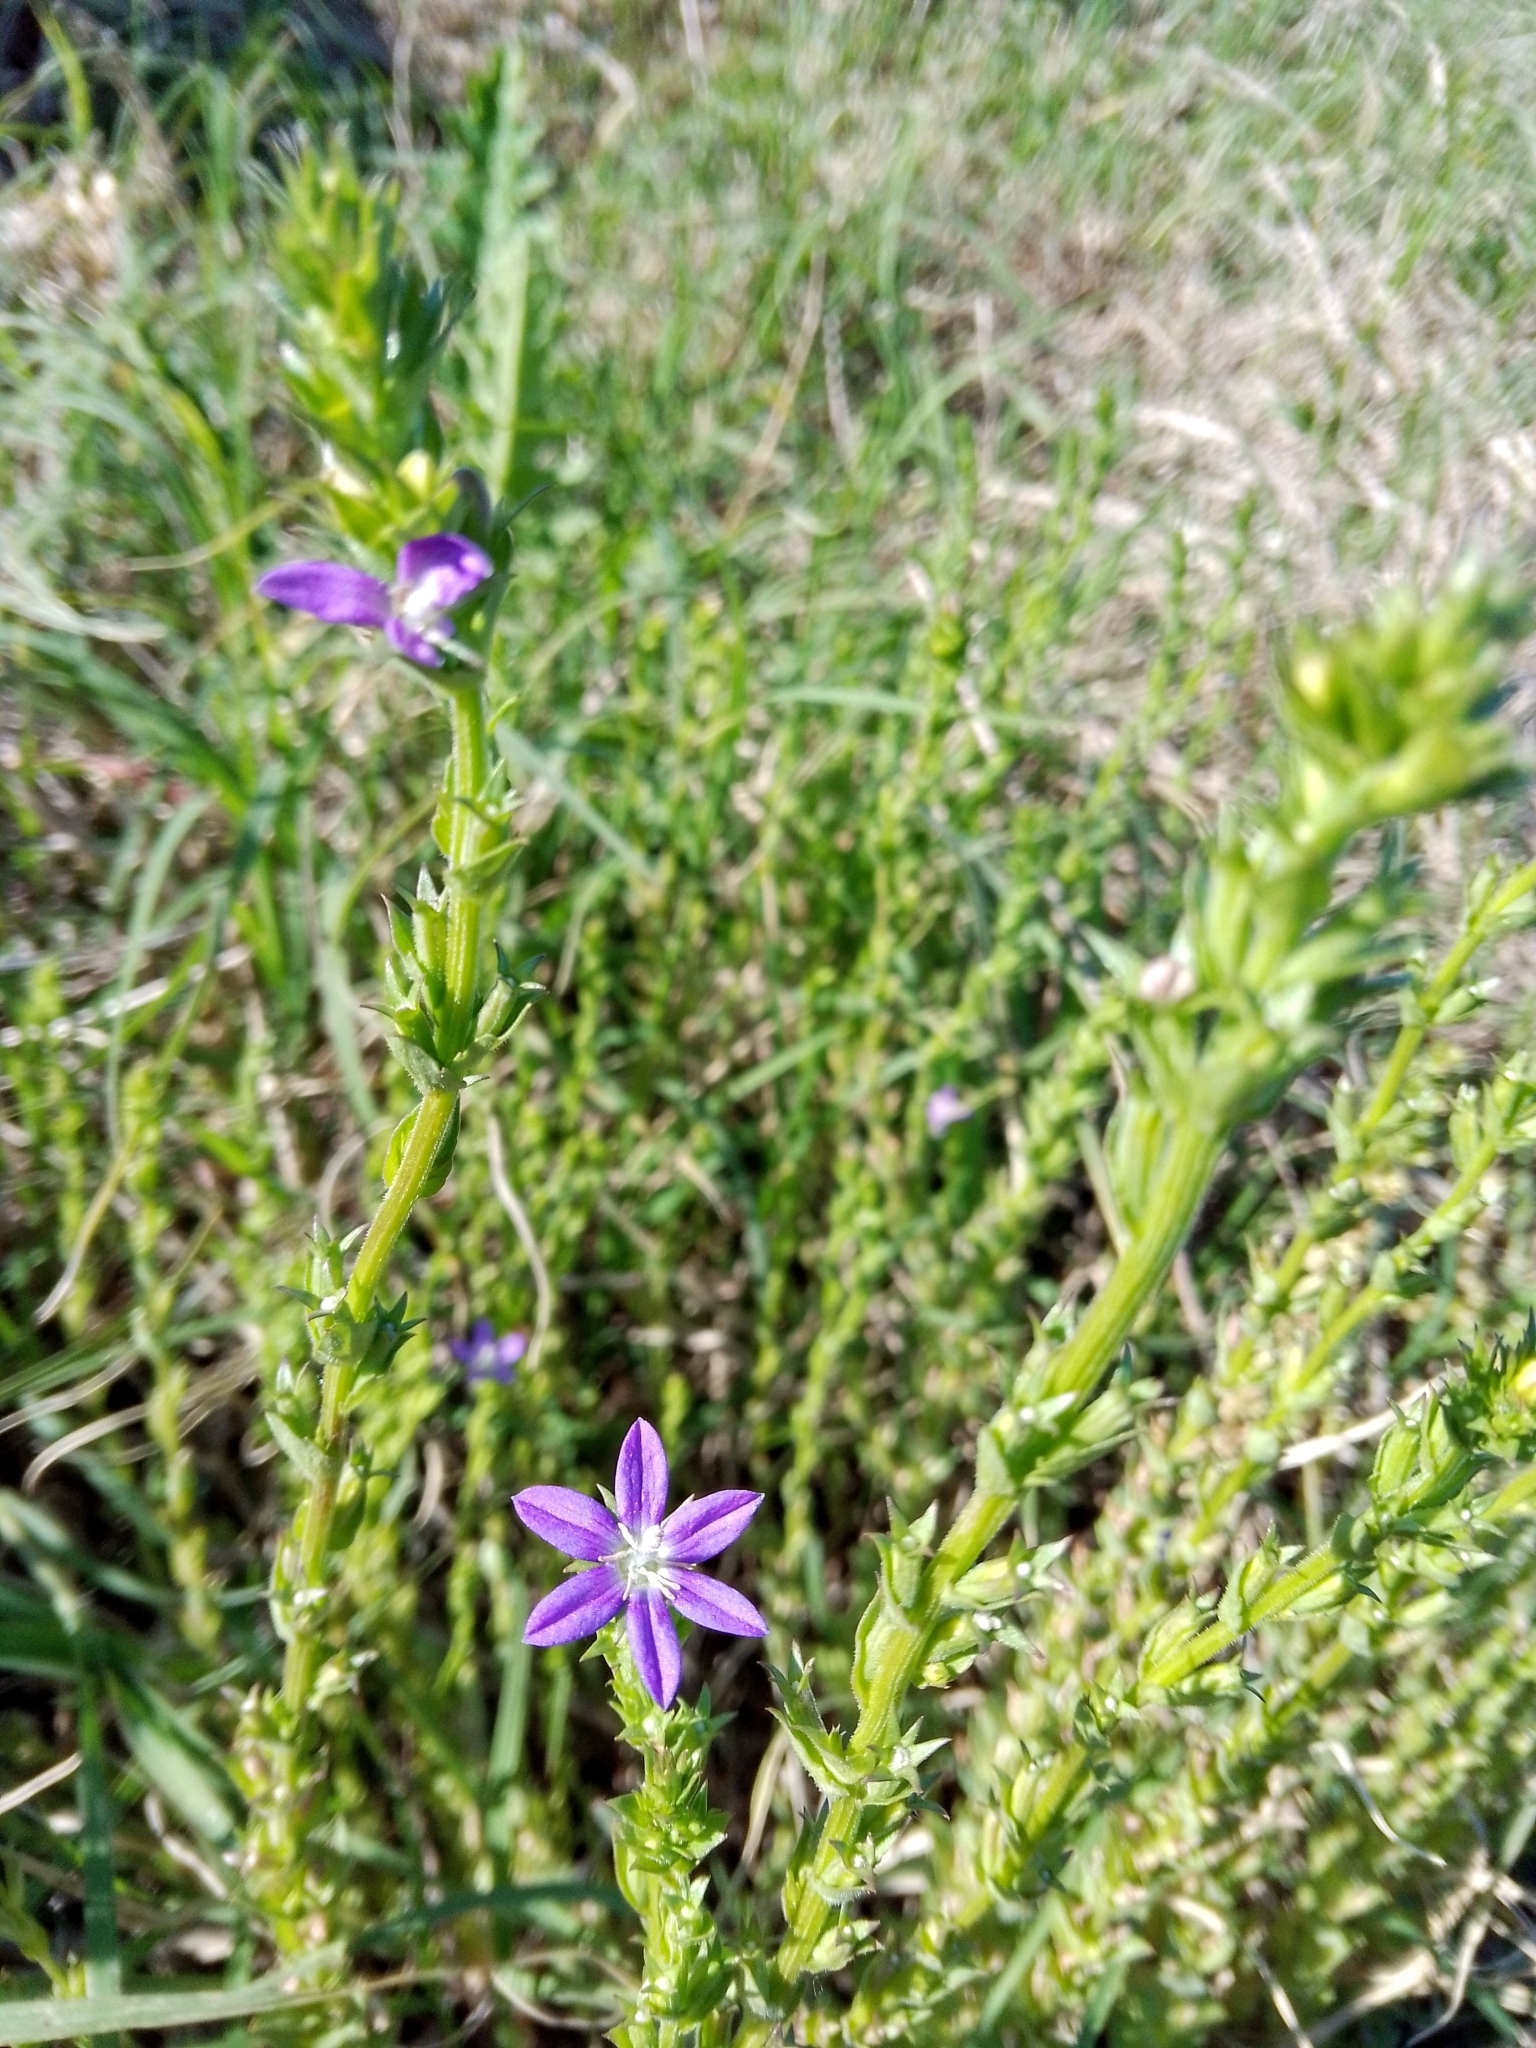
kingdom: Plantae
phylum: Tracheophyta
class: Magnoliopsida
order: Asterales
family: Campanulaceae
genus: Triodanis
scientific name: Triodanis biflora
